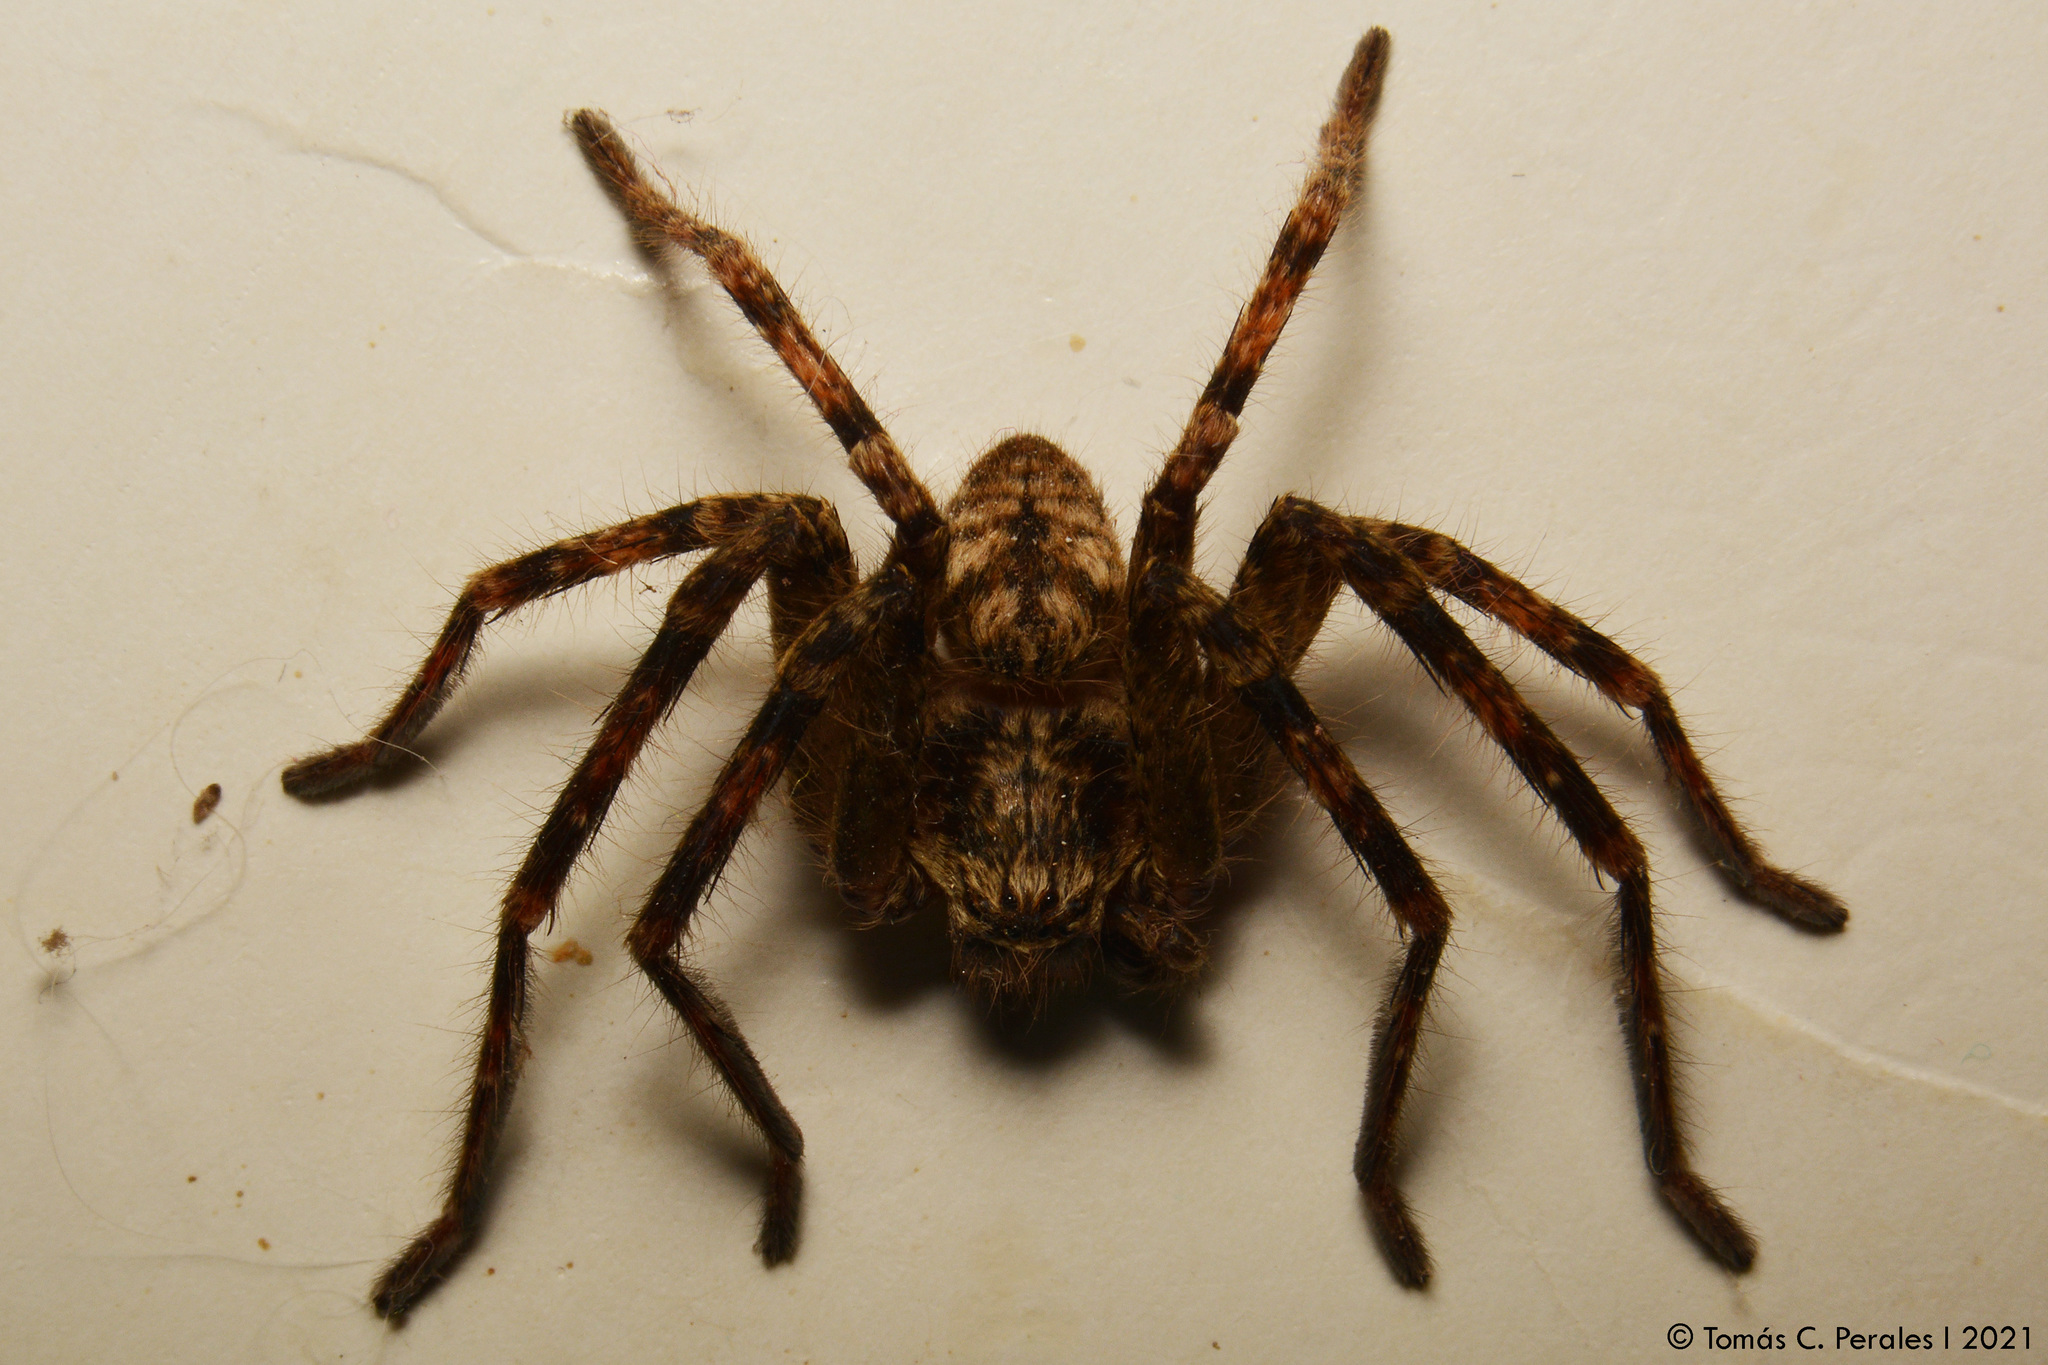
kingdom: Animalia
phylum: Arthropoda
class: Arachnida
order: Araneae
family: Sparassidae
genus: Polybetes
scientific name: Polybetes rapidus
